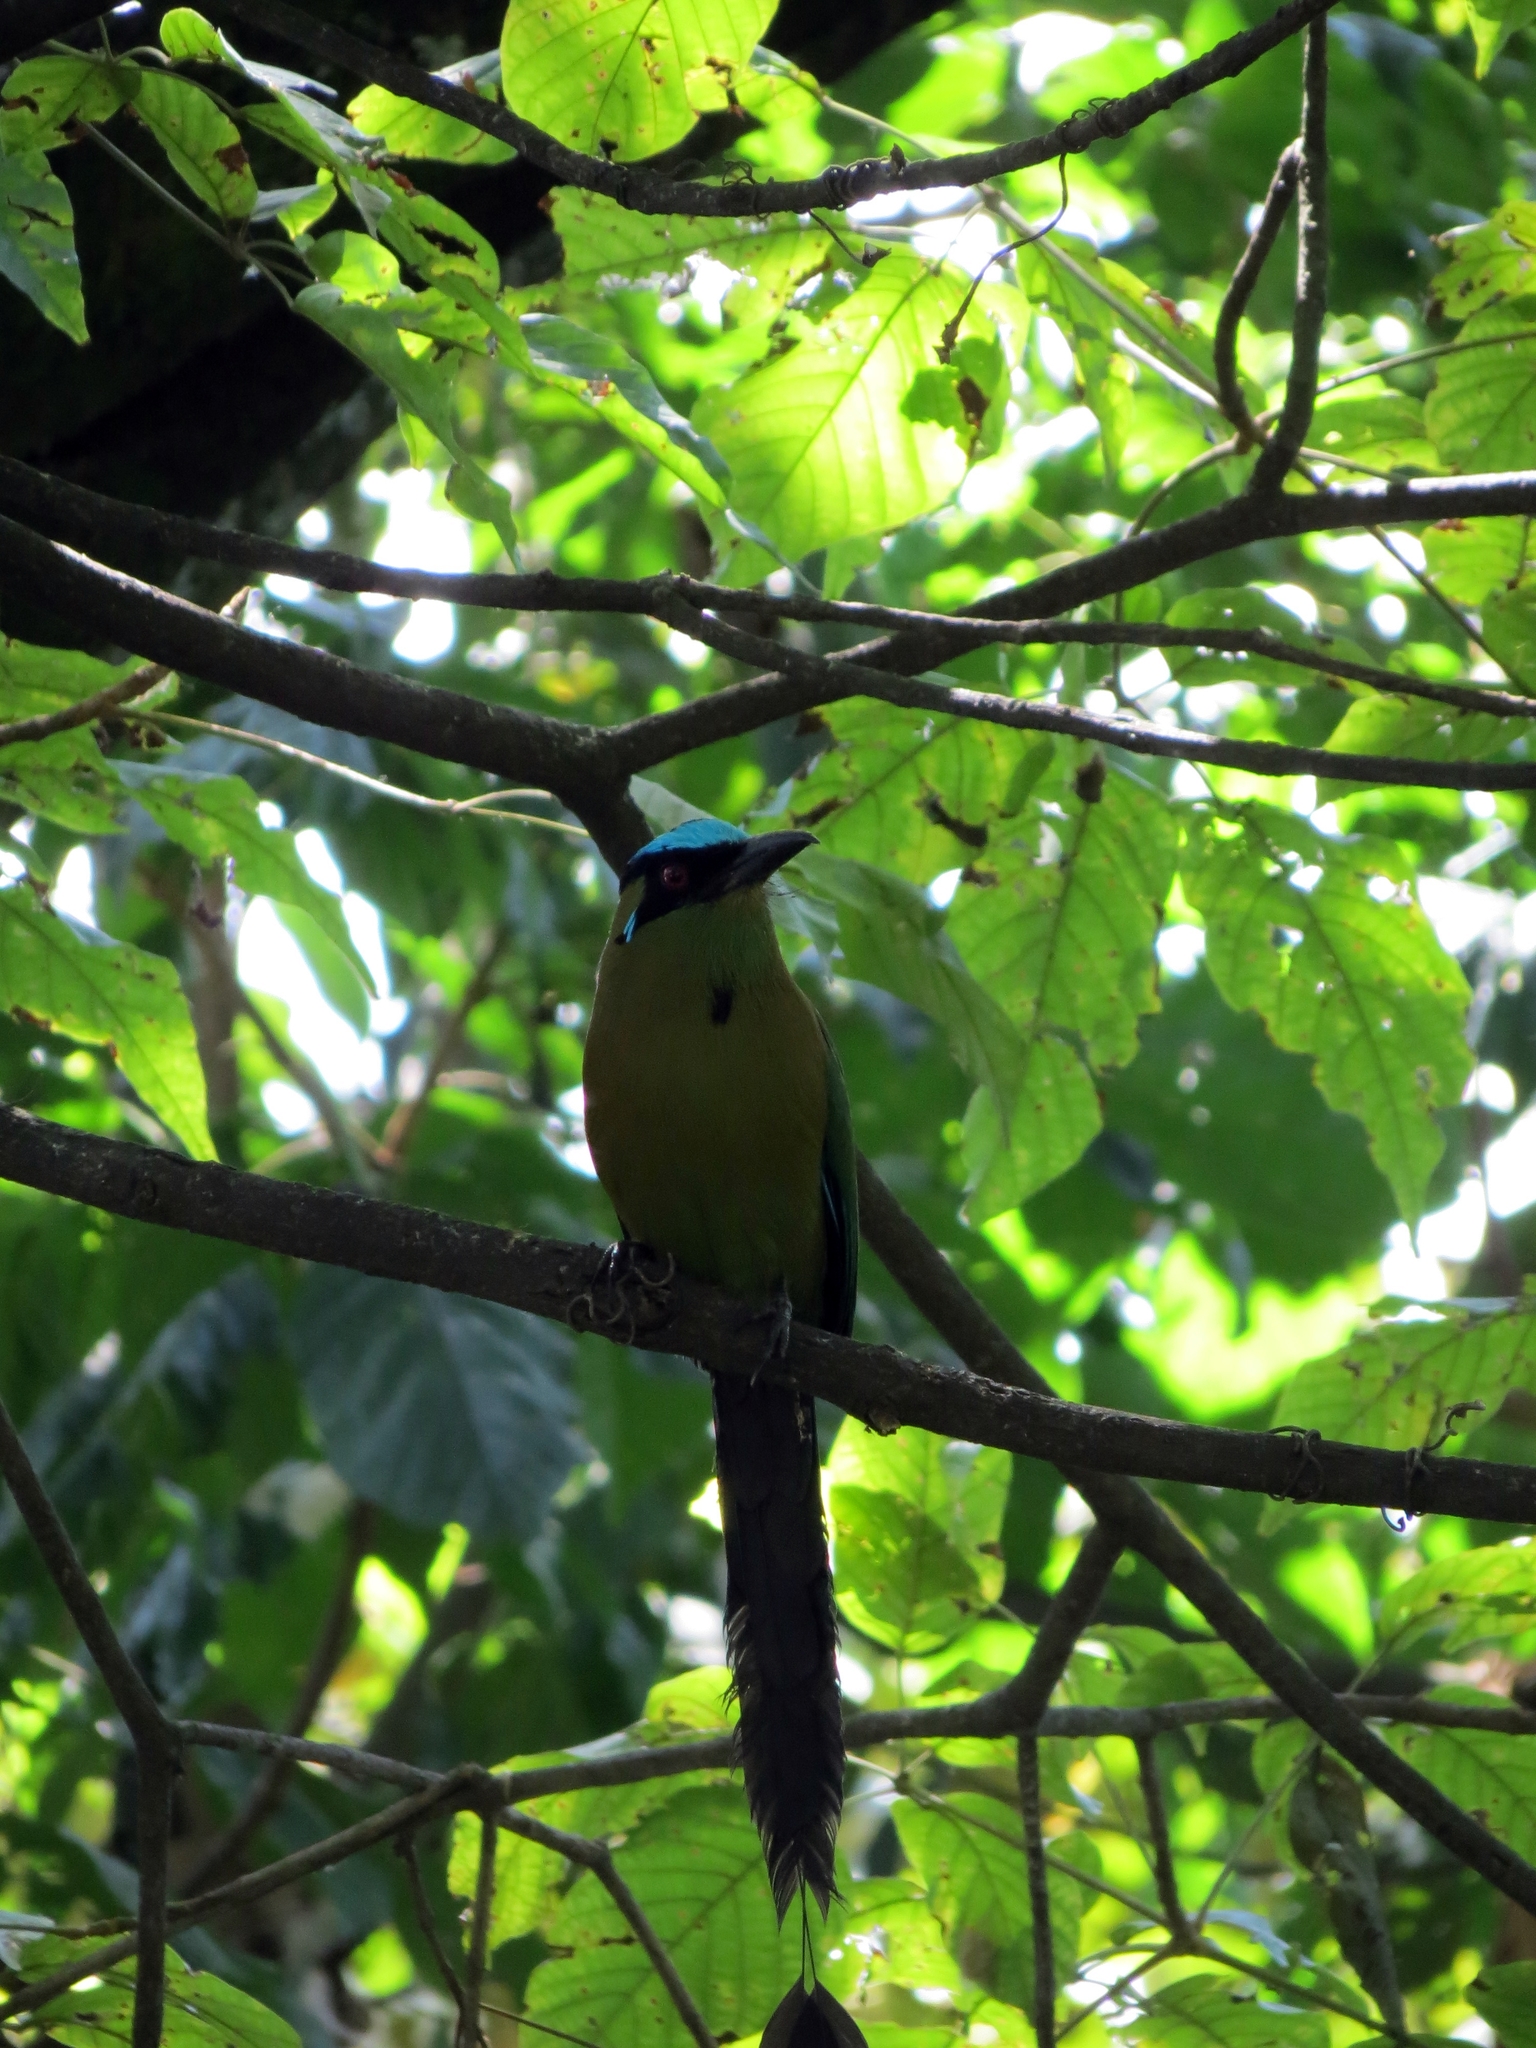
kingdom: Animalia
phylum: Chordata
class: Aves
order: Coraciiformes
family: Momotidae
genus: Momotus
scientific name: Momotus aequatorialis
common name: Andean motmot
